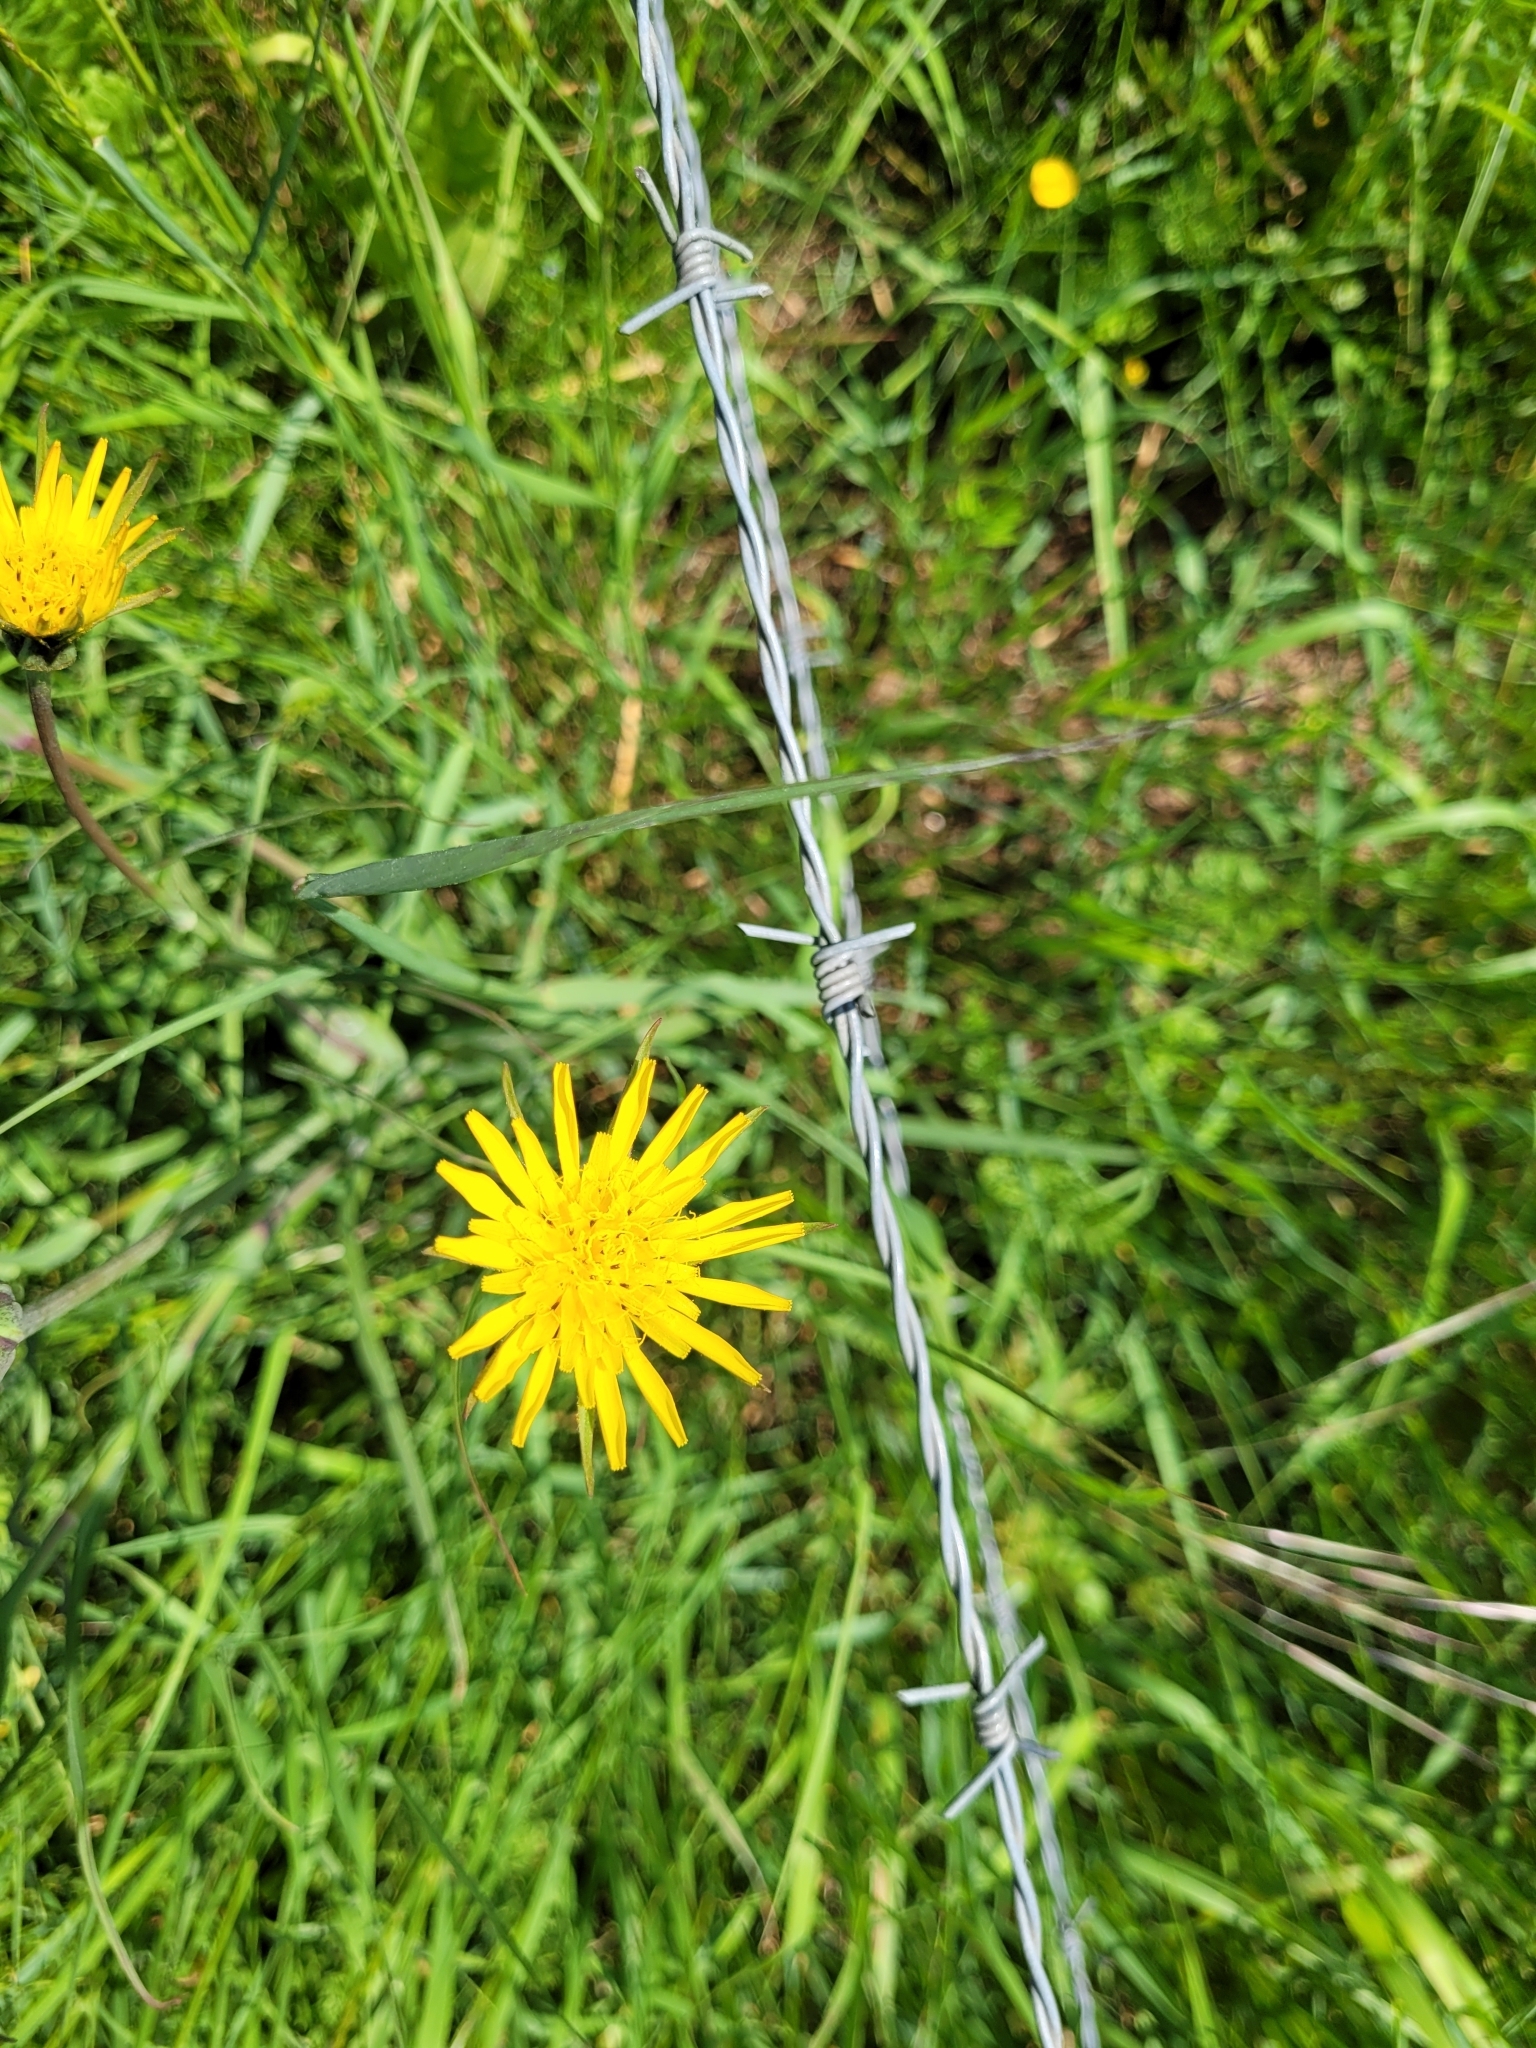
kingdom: Plantae
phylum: Tracheophyta
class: Magnoliopsida
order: Asterales
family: Asteraceae
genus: Tragopogon
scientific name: Tragopogon pratensis
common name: Goat's-beard
